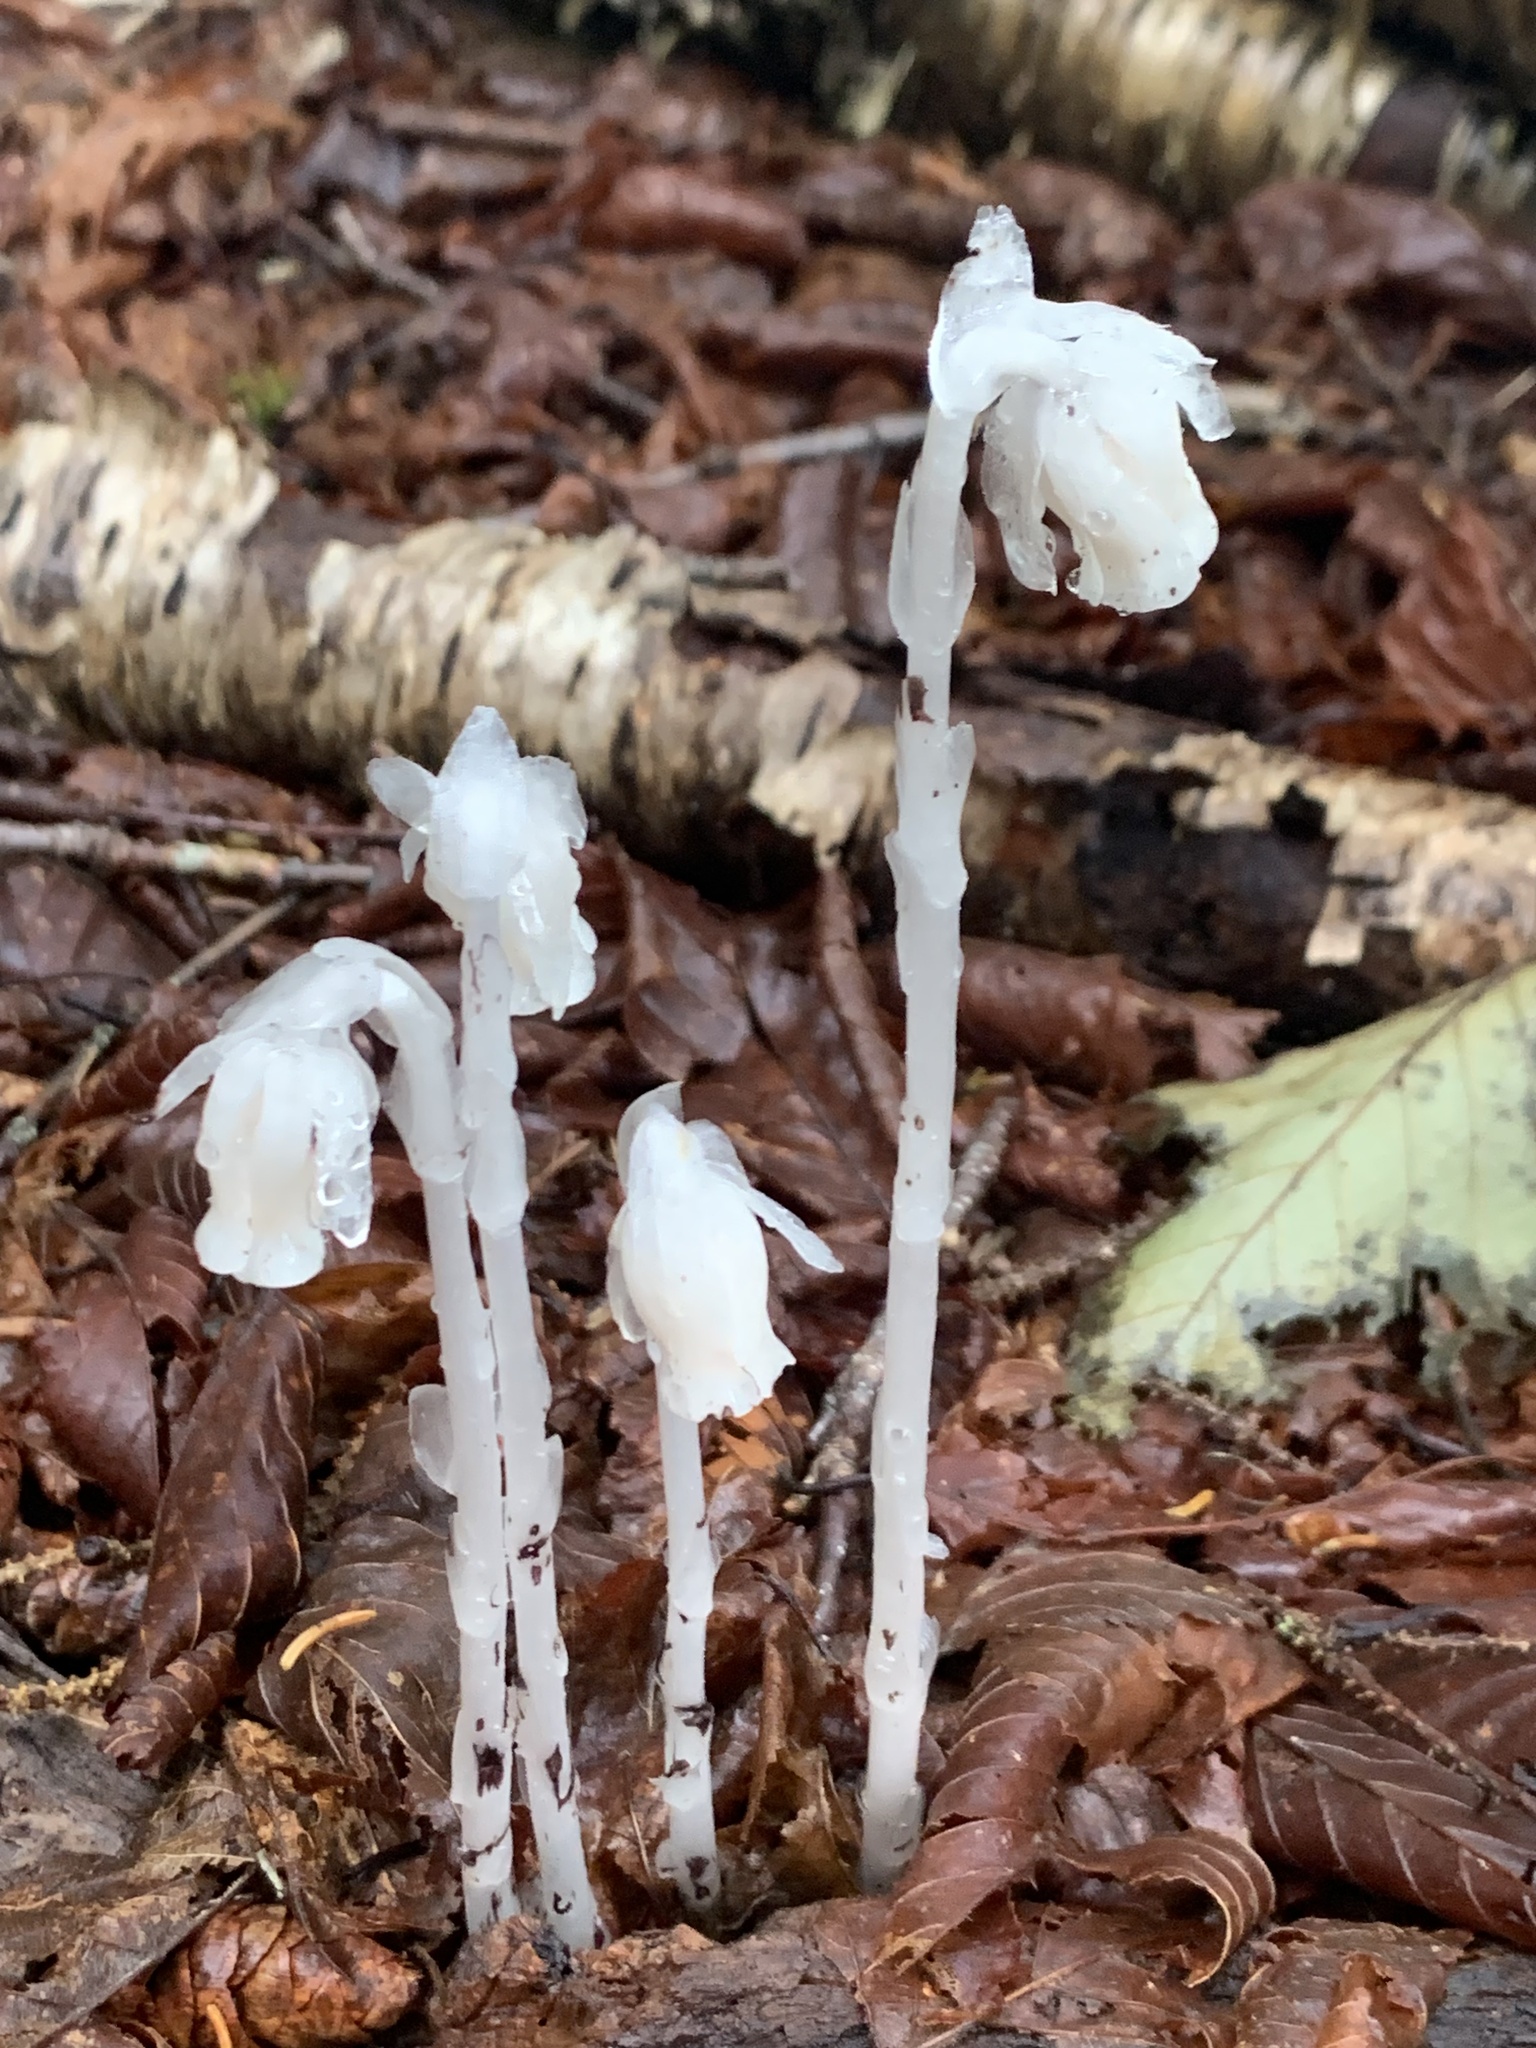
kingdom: Plantae
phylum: Tracheophyta
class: Magnoliopsida
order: Ericales
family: Ericaceae
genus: Monotropa
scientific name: Monotropa uniflora
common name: Convulsion root
